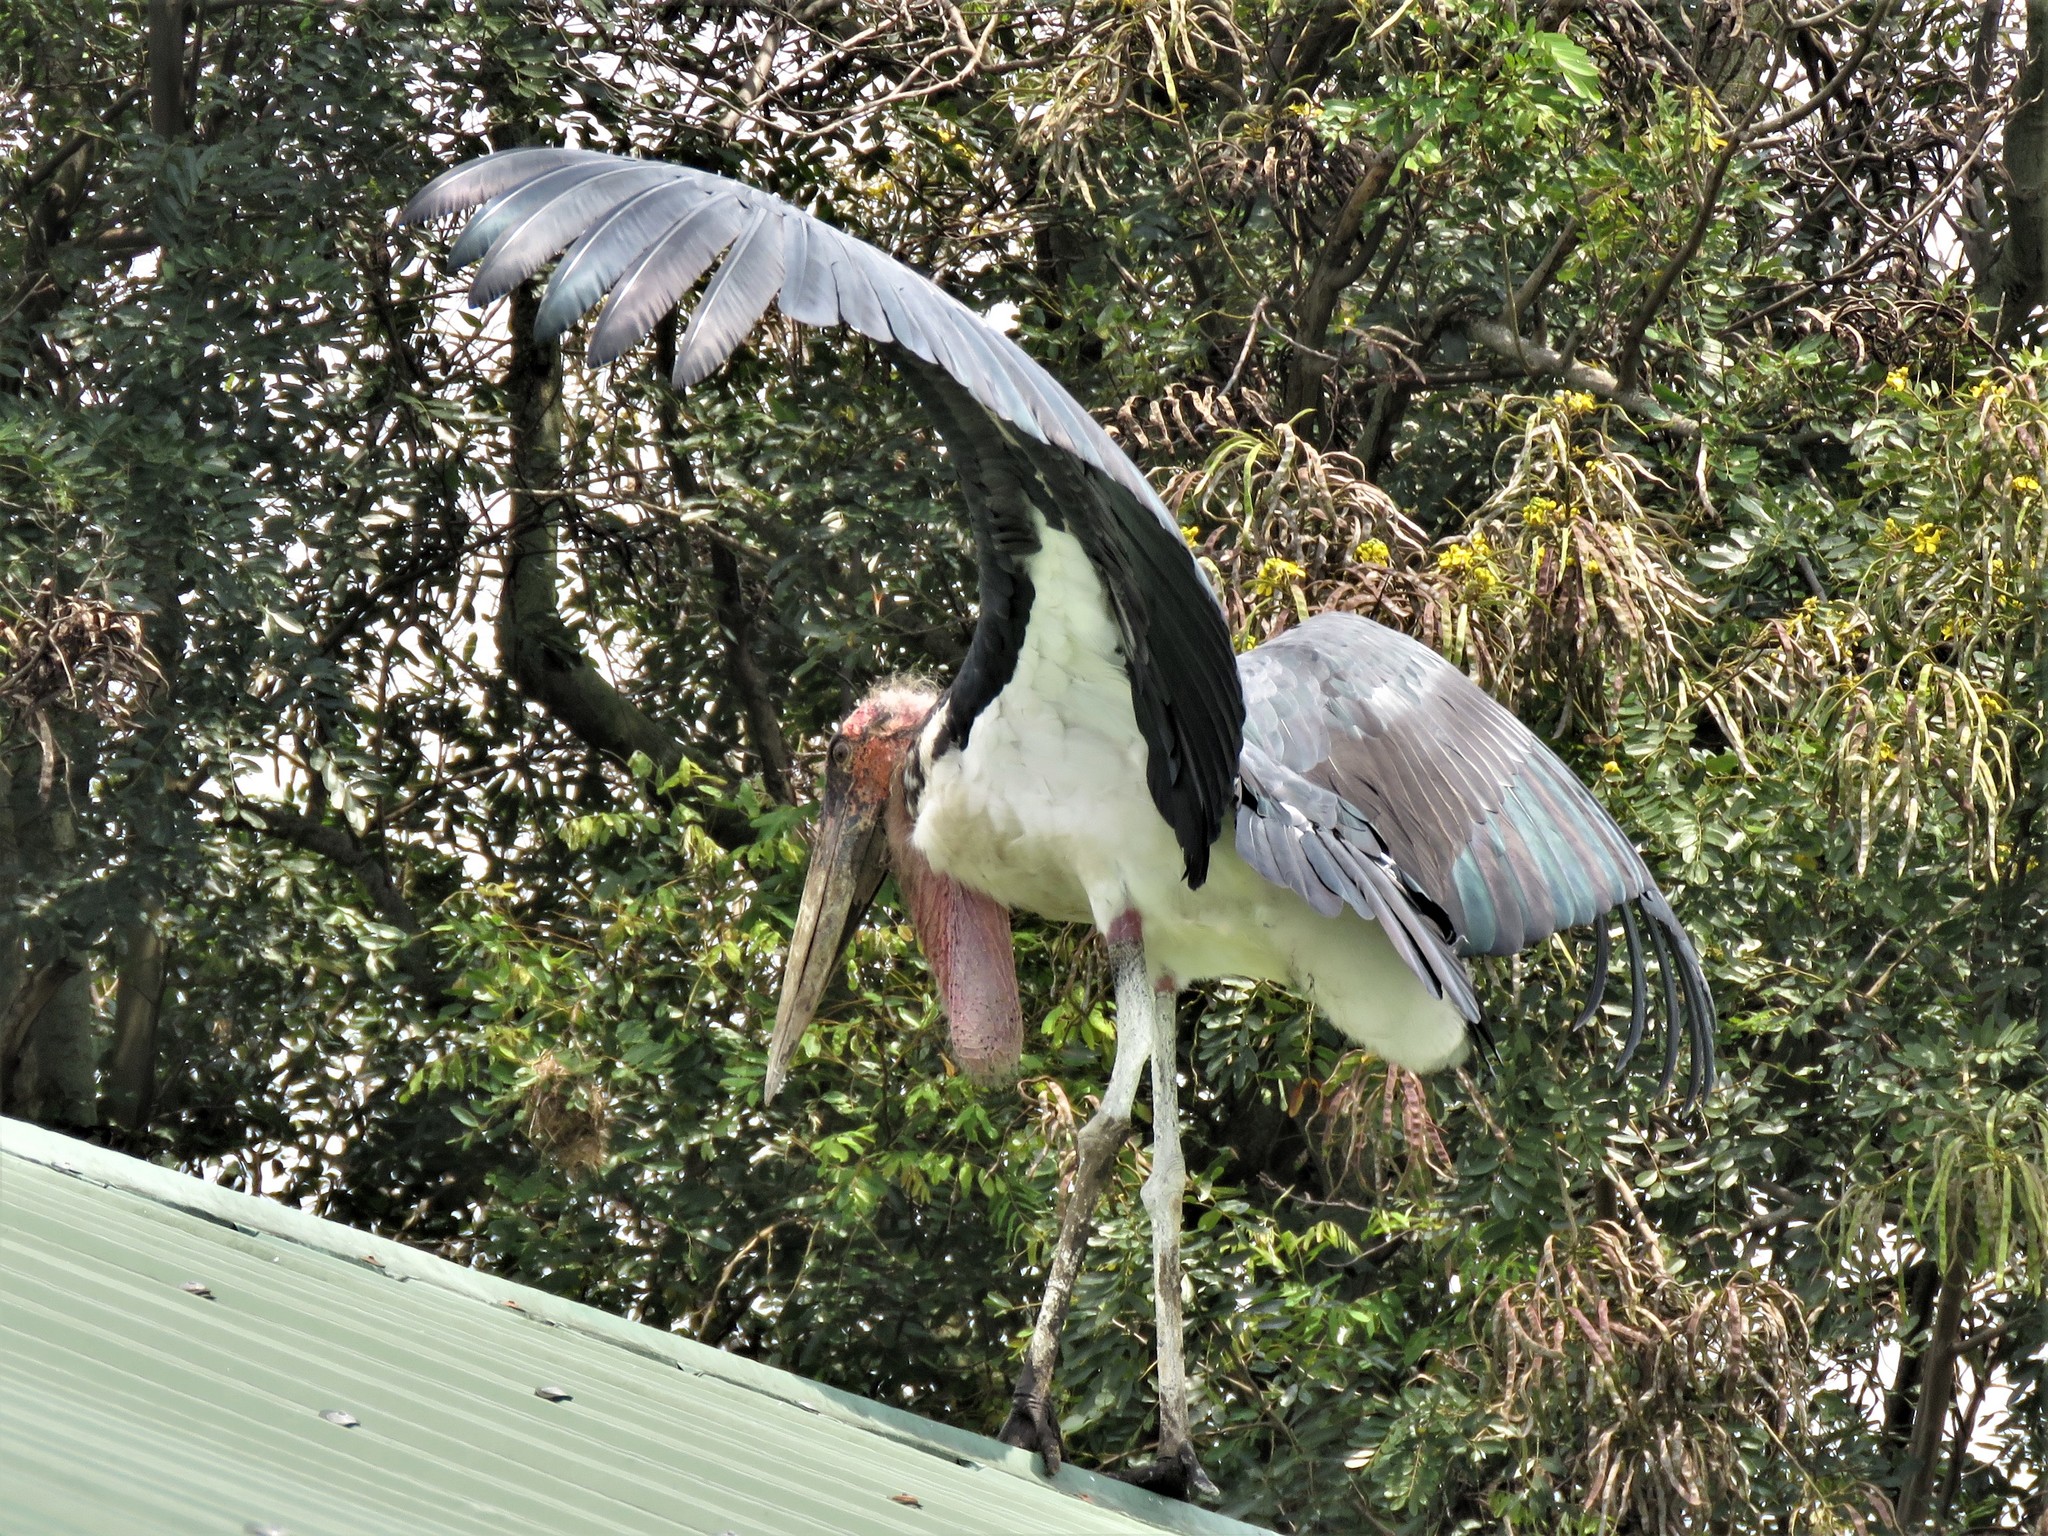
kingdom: Animalia
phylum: Chordata
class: Aves
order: Ciconiiformes
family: Ciconiidae
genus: Leptoptilos
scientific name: Leptoptilos crumenifer
